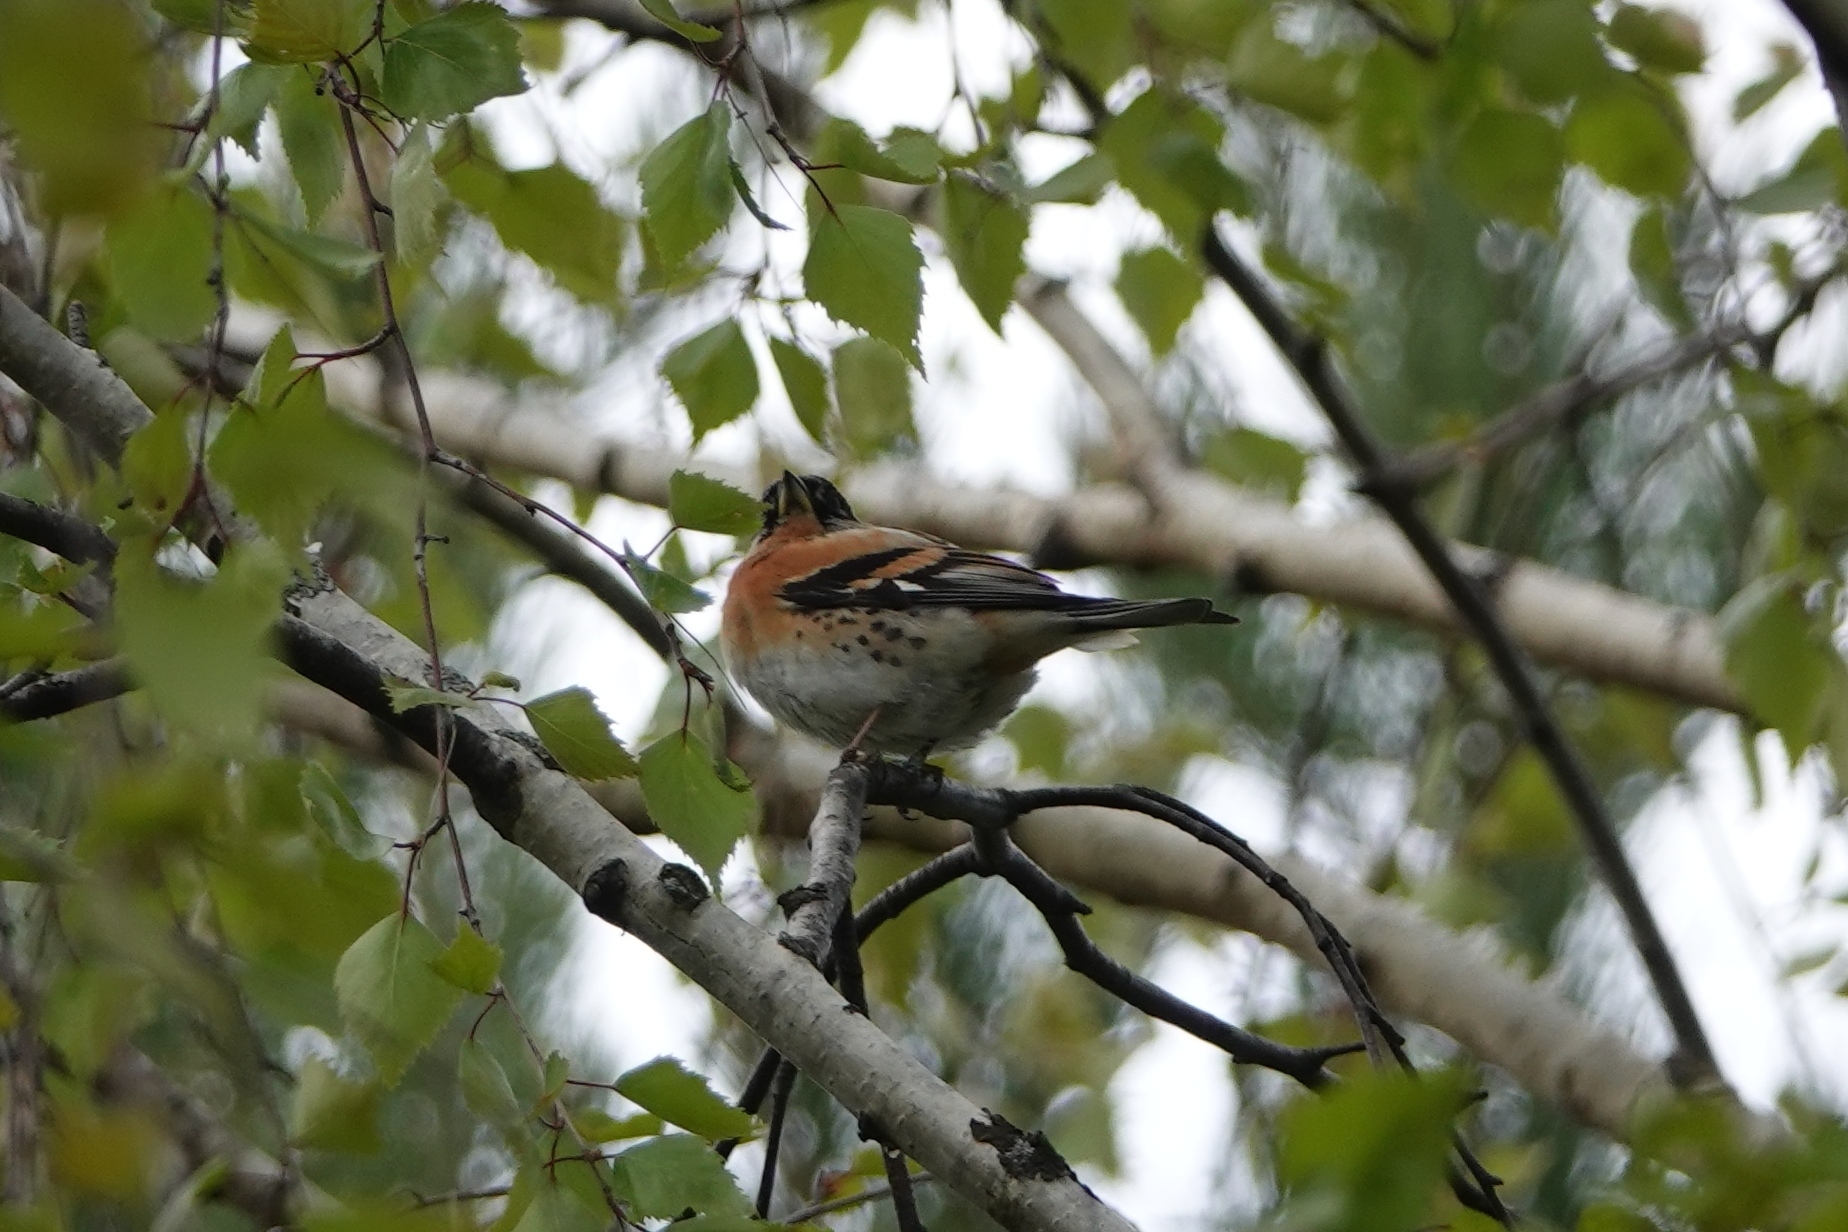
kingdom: Animalia
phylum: Chordata
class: Aves
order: Passeriformes
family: Fringillidae
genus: Fringilla
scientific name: Fringilla montifringilla
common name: Brambling
